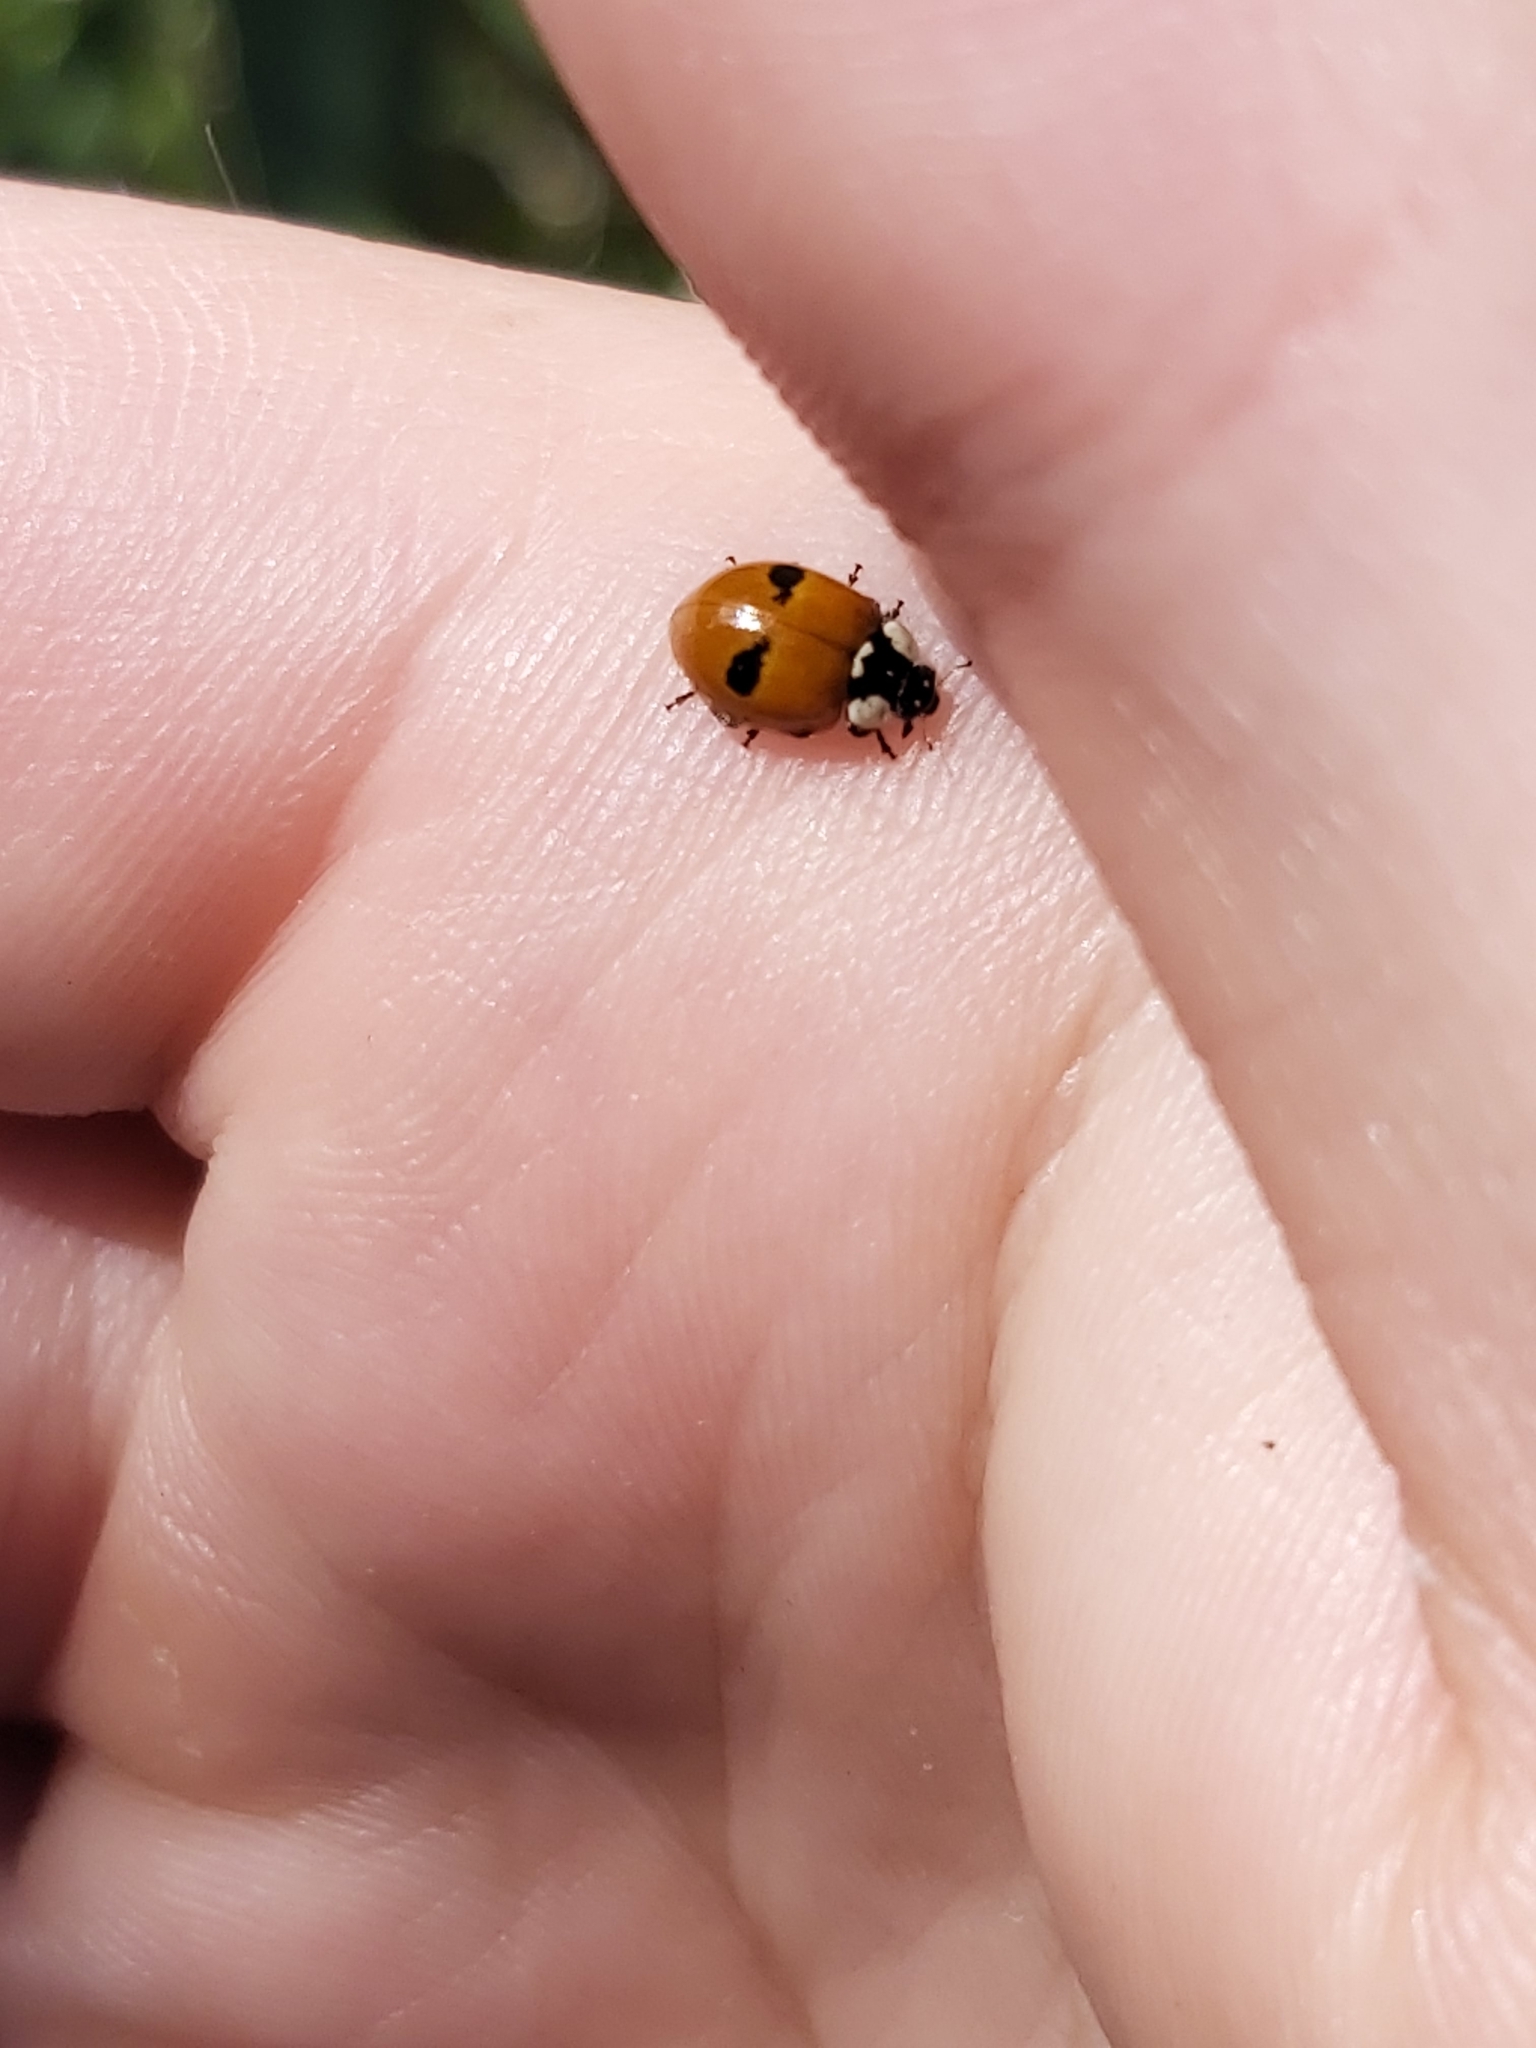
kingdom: Animalia
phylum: Arthropoda
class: Insecta
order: Coleoptera
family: Coccinellidae
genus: Adalia
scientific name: Adalia bipunctata
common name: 2-spot ladybird
